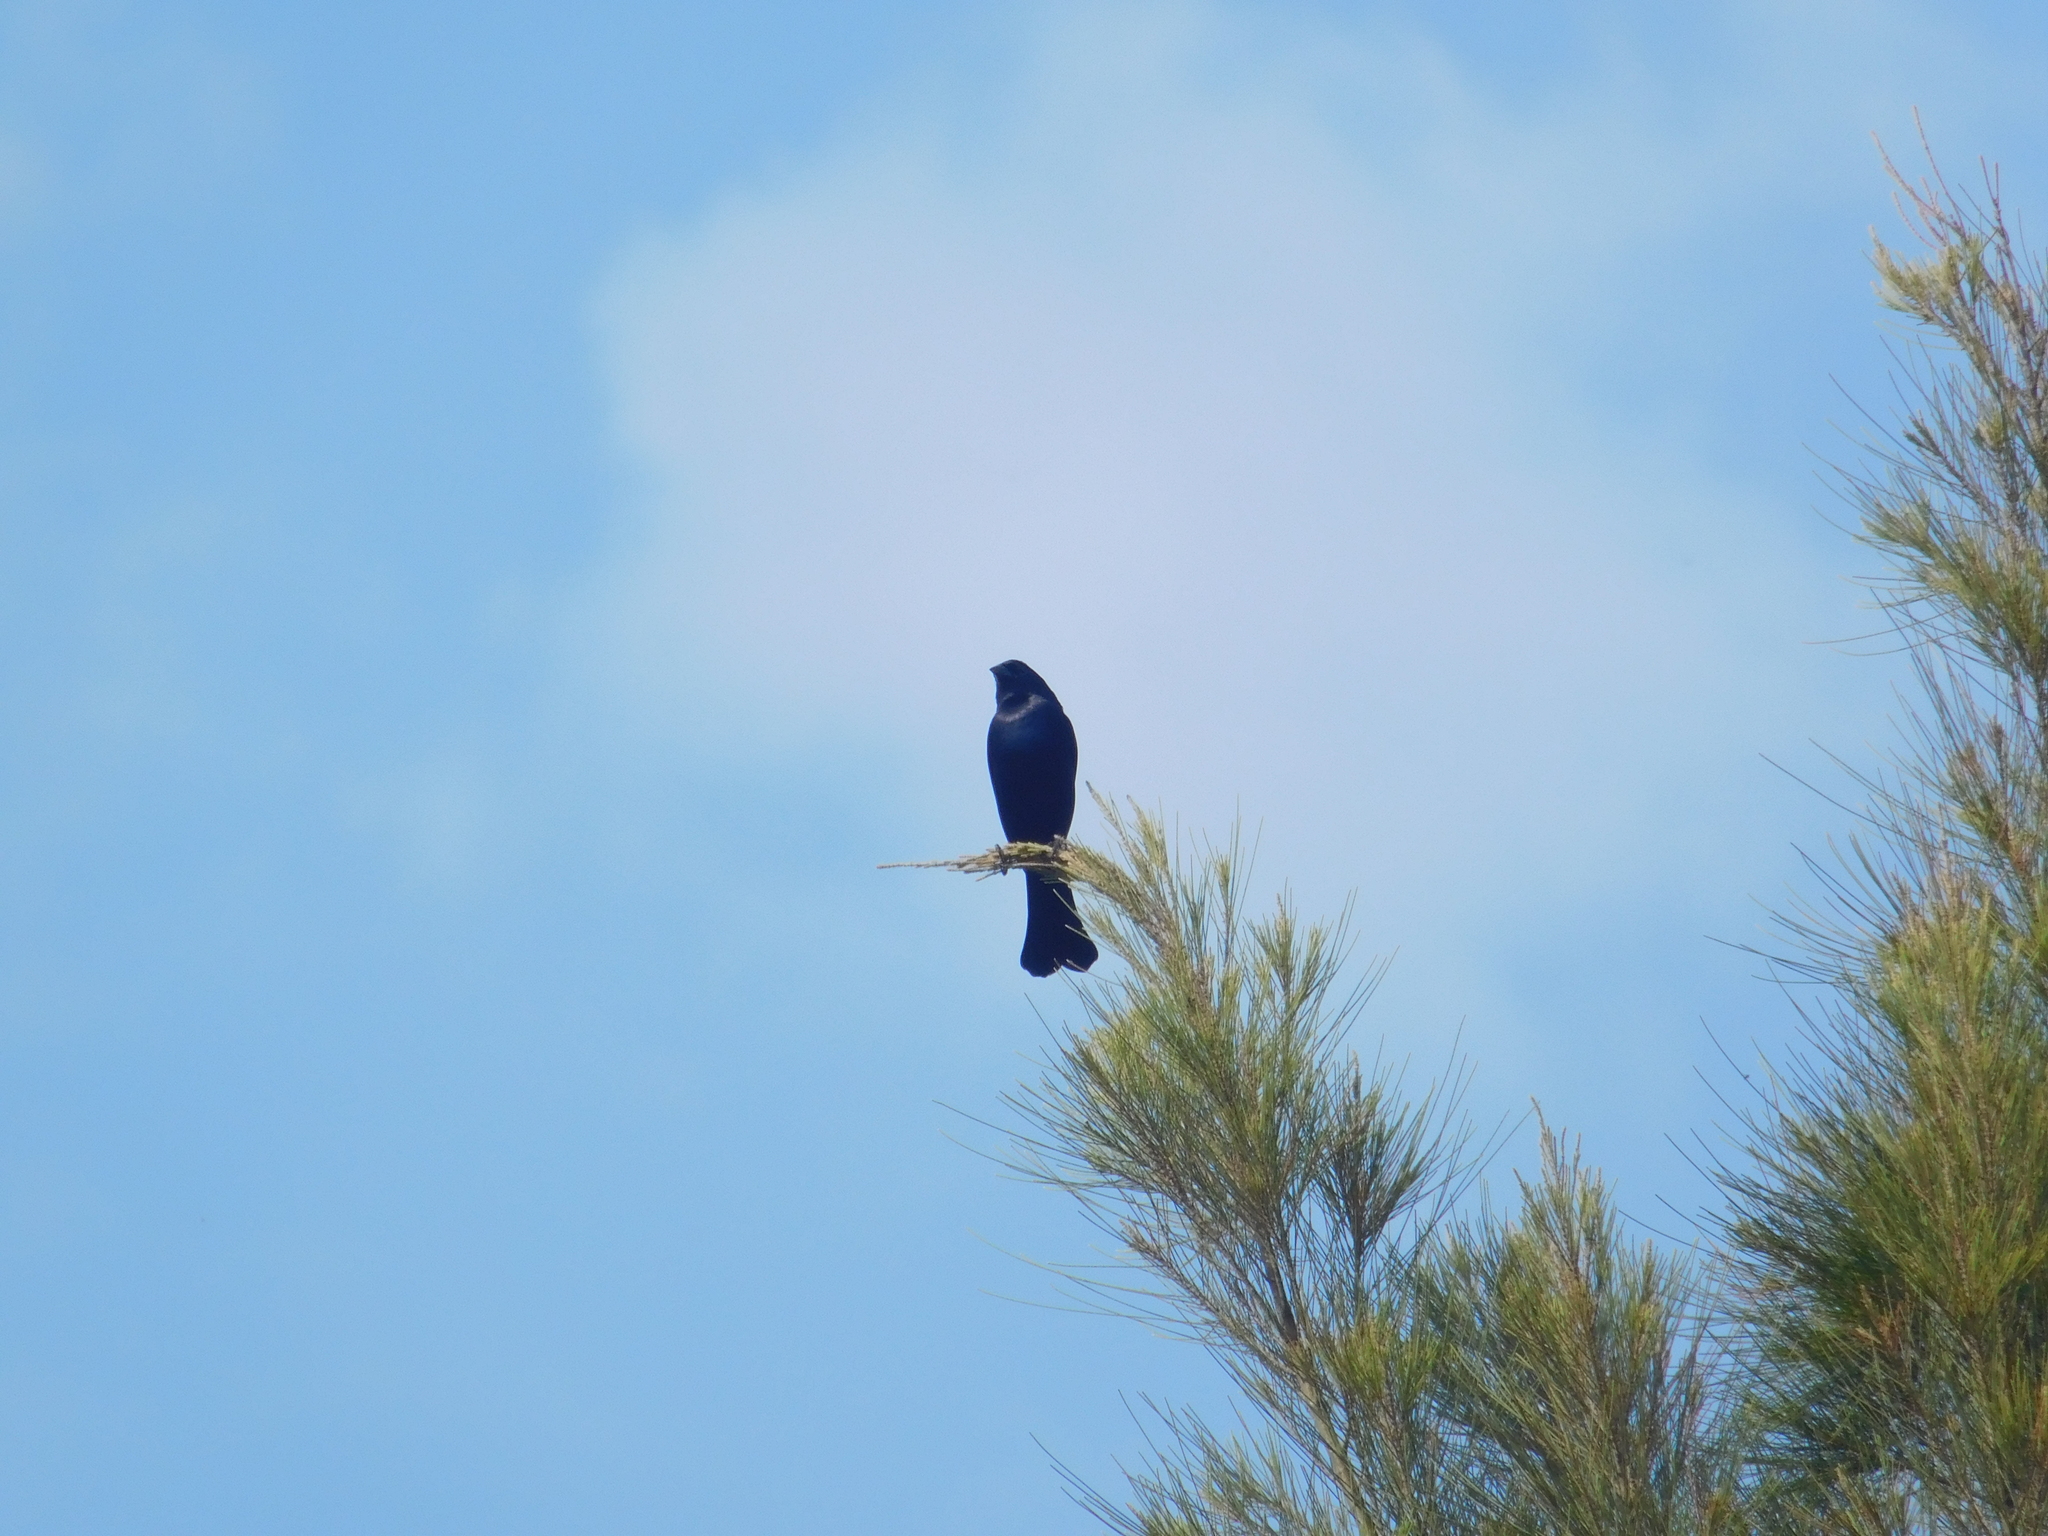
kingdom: Animalia
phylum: Chordata
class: Aves
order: Passeriformes
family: Icteridae
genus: Molothrus
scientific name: Molothrus bonariensis
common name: Shiny cowbird
